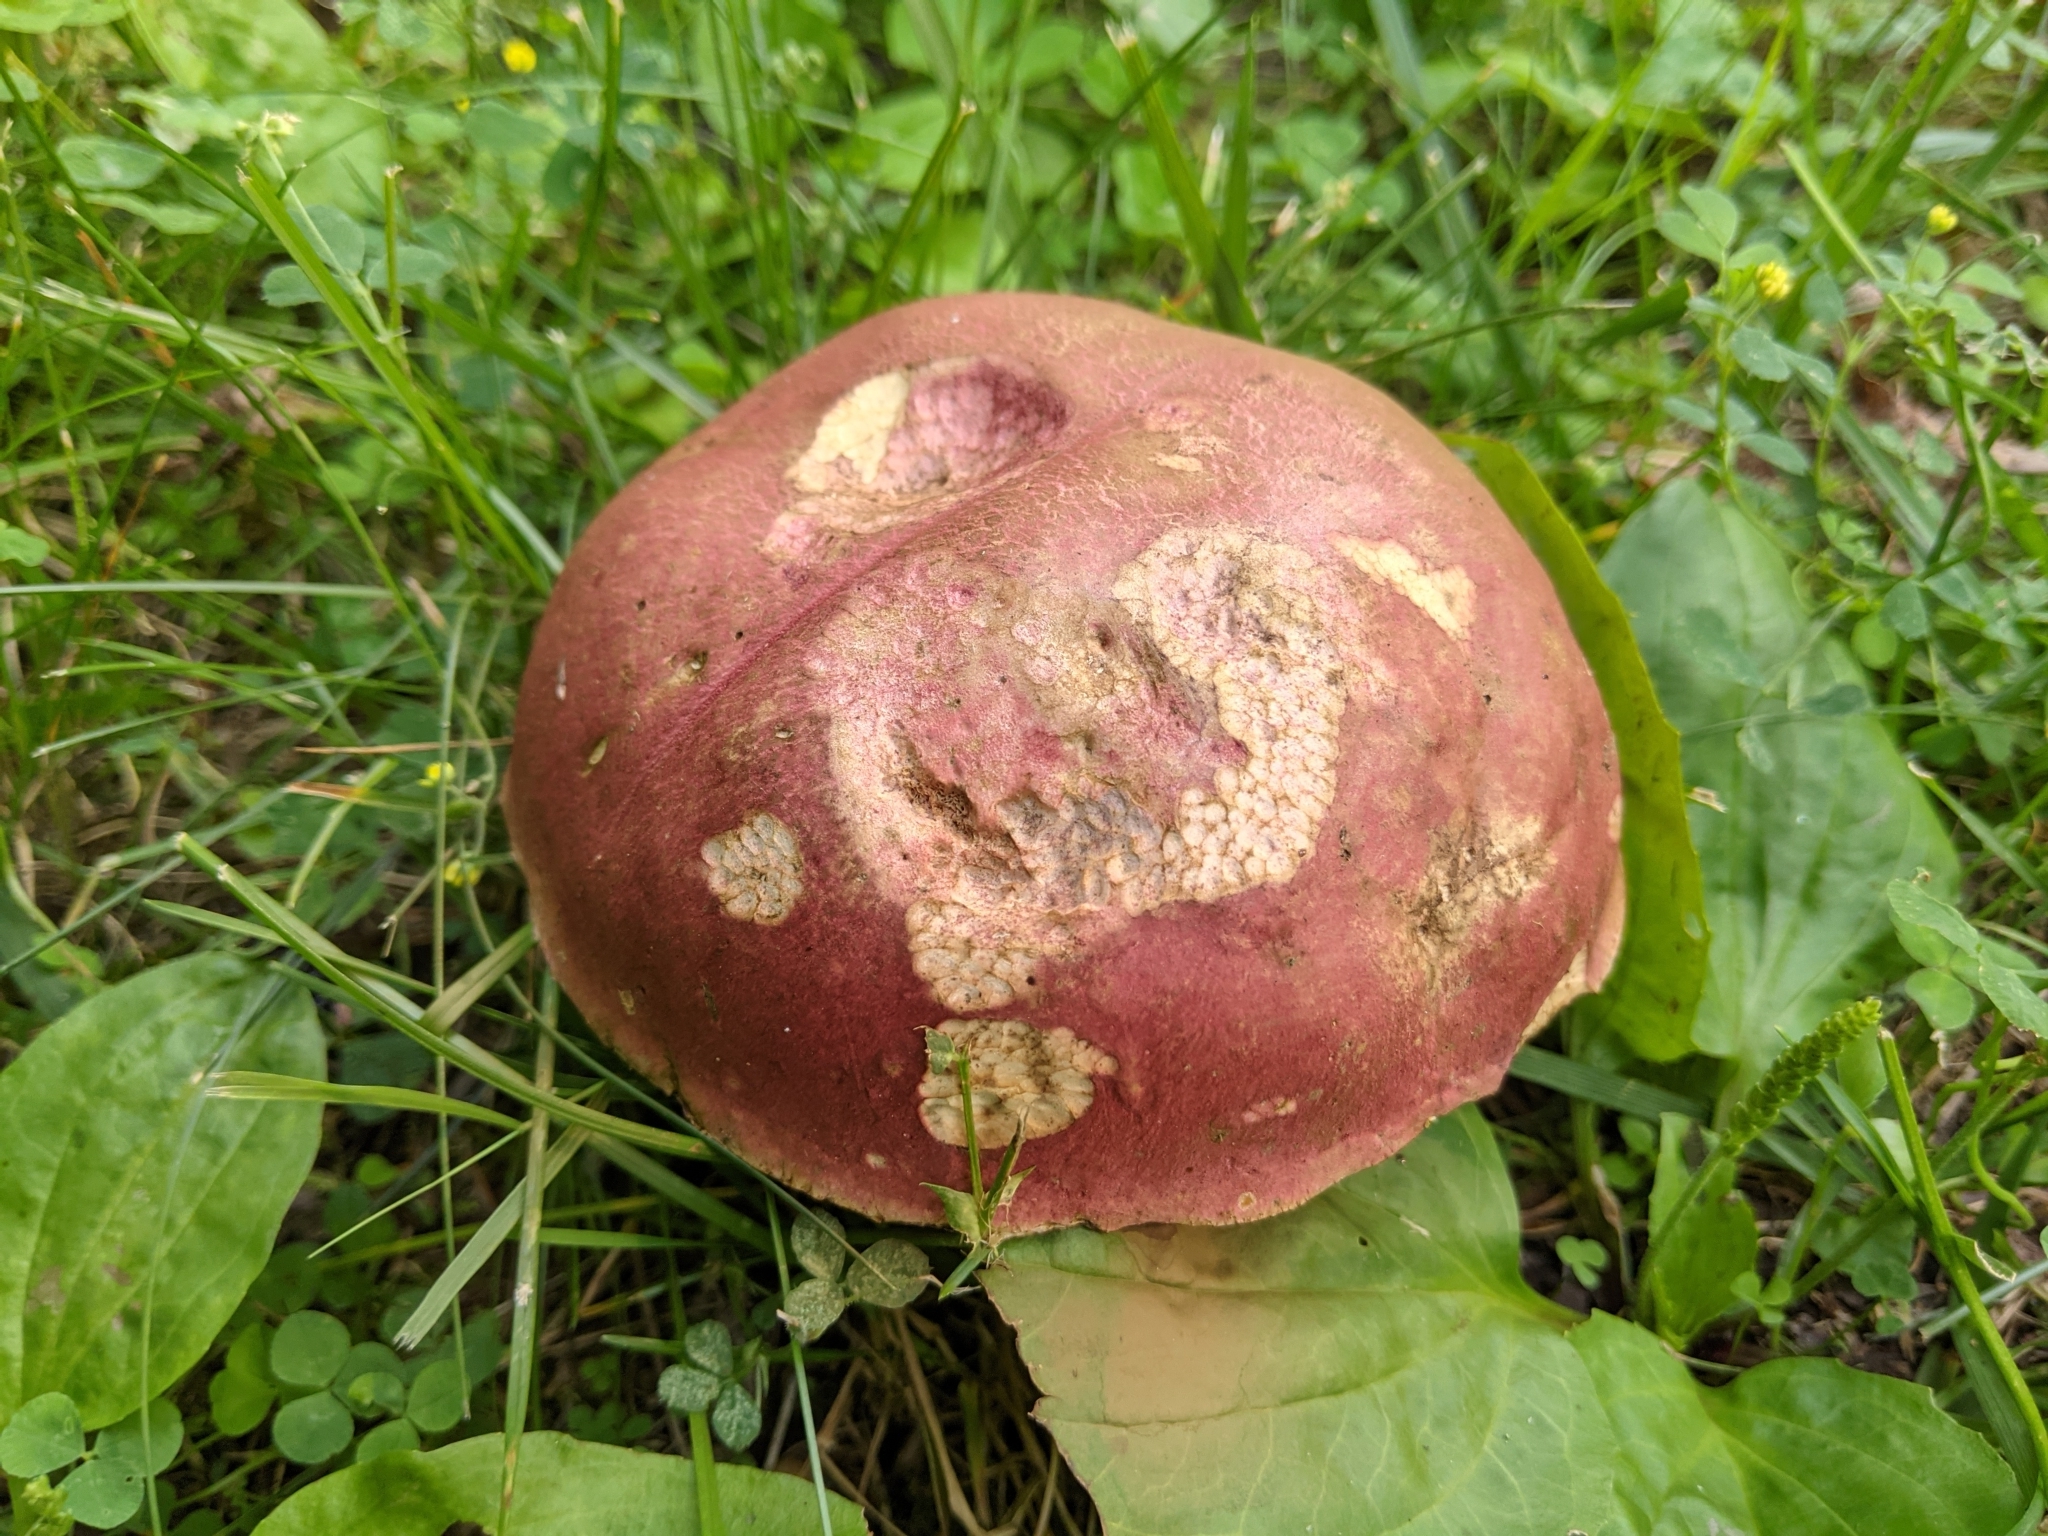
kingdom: Fungi
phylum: Basidiomycota
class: Agaricomycetes
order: Boletales
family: Boletaceae
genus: Rubroboletus
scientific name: Rubroboletus rhodosanguineus
